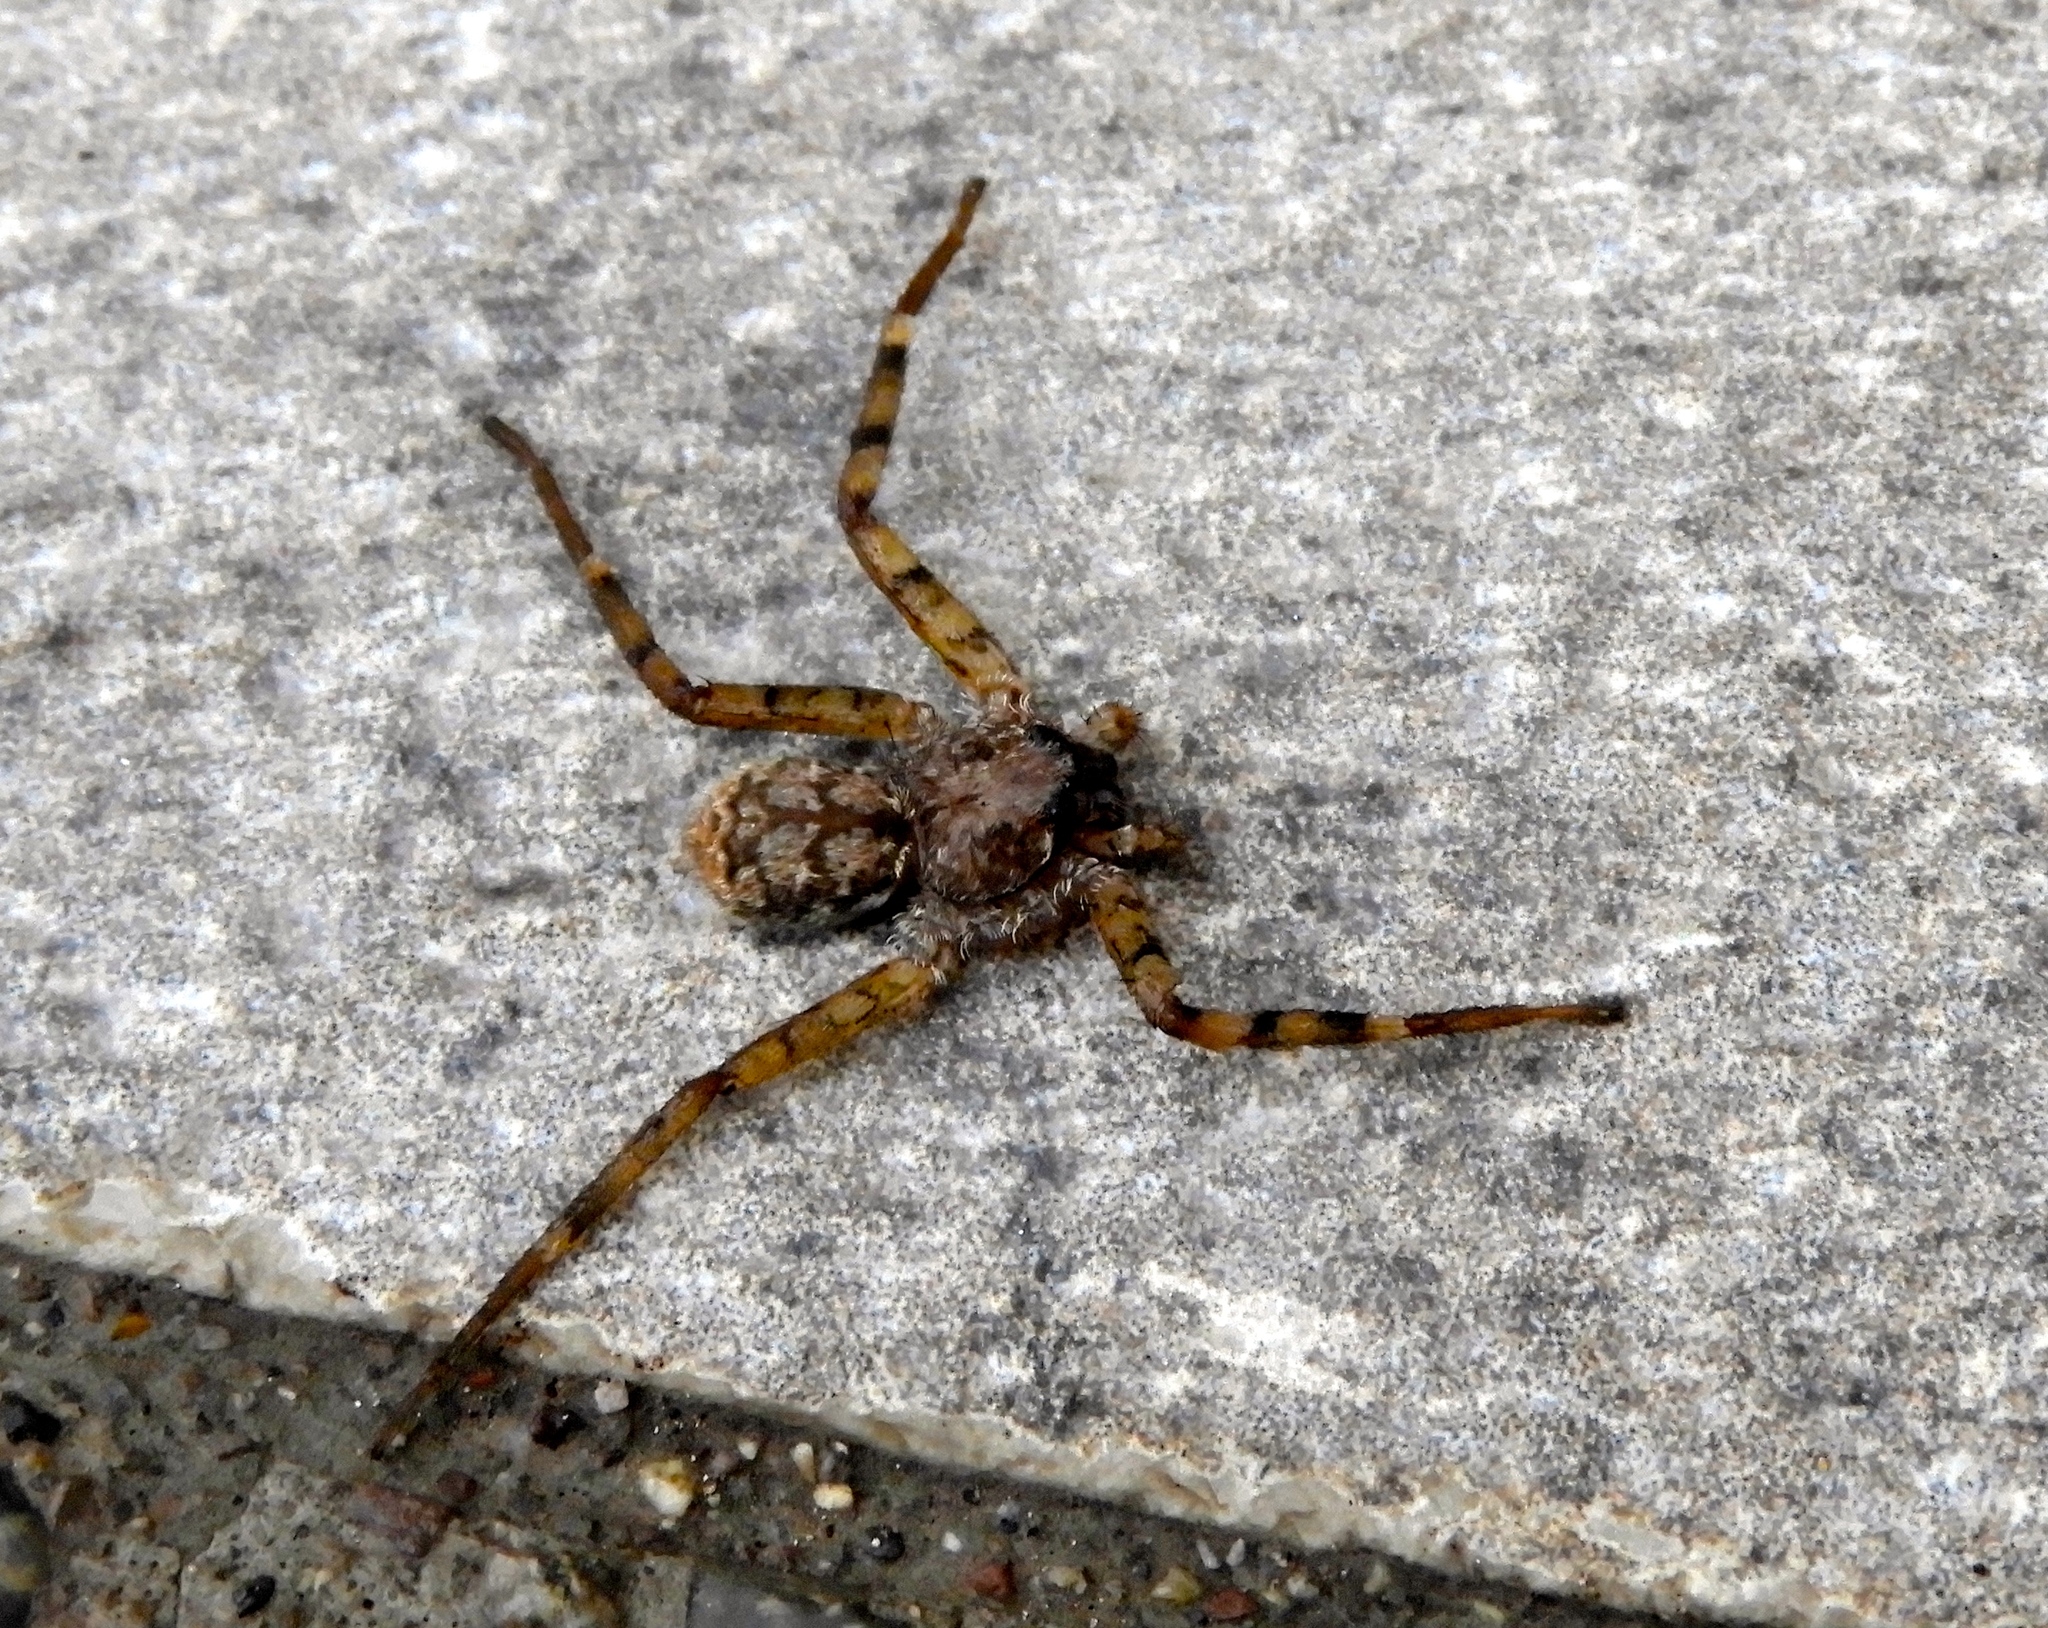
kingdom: Animalia
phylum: Arthropoda
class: Arachnida
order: Araneae
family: Selenopidae
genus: Selenops
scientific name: Selenops
